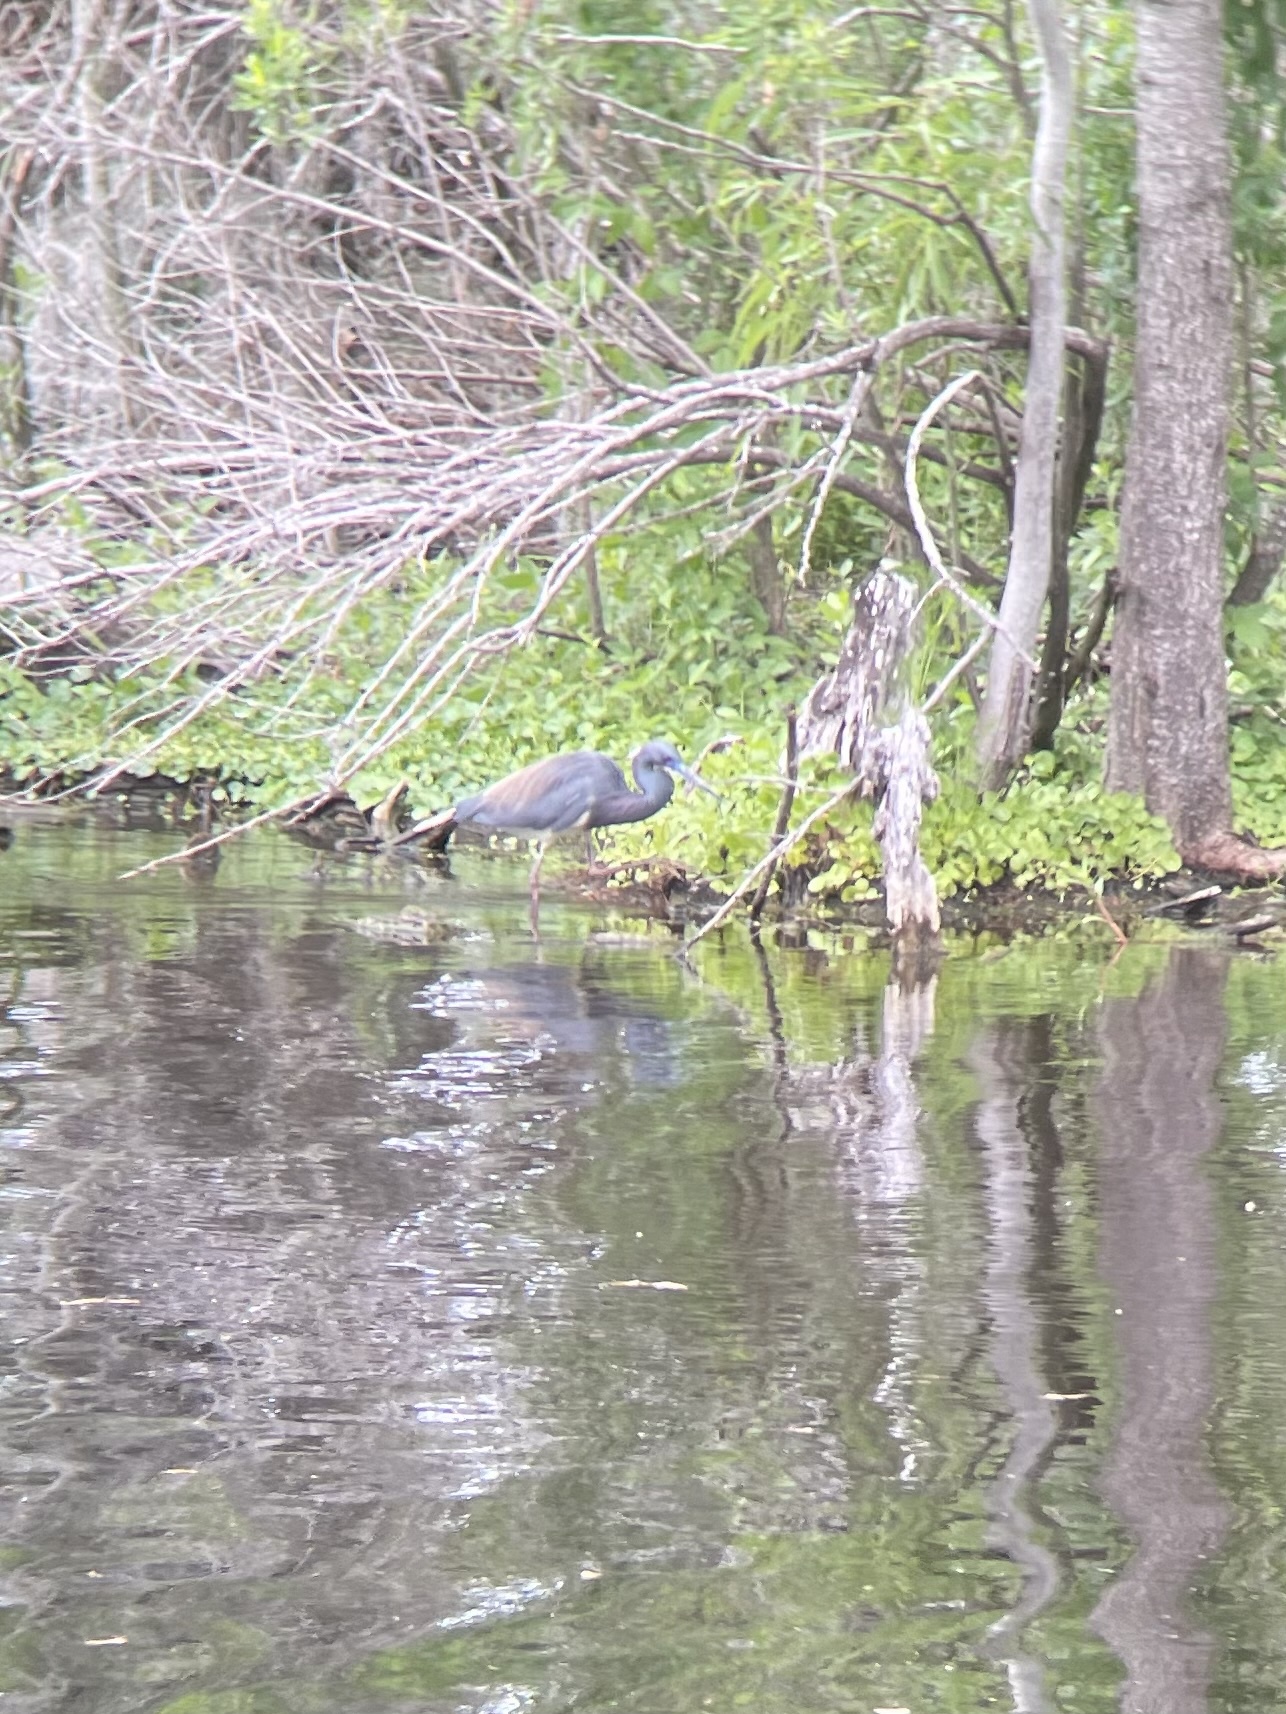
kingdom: Animalia
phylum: Chordata
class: Aves
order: Pelecaniformes
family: Ardeidae
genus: Egretta
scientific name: Egretta tricolor
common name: Tricolored heron
